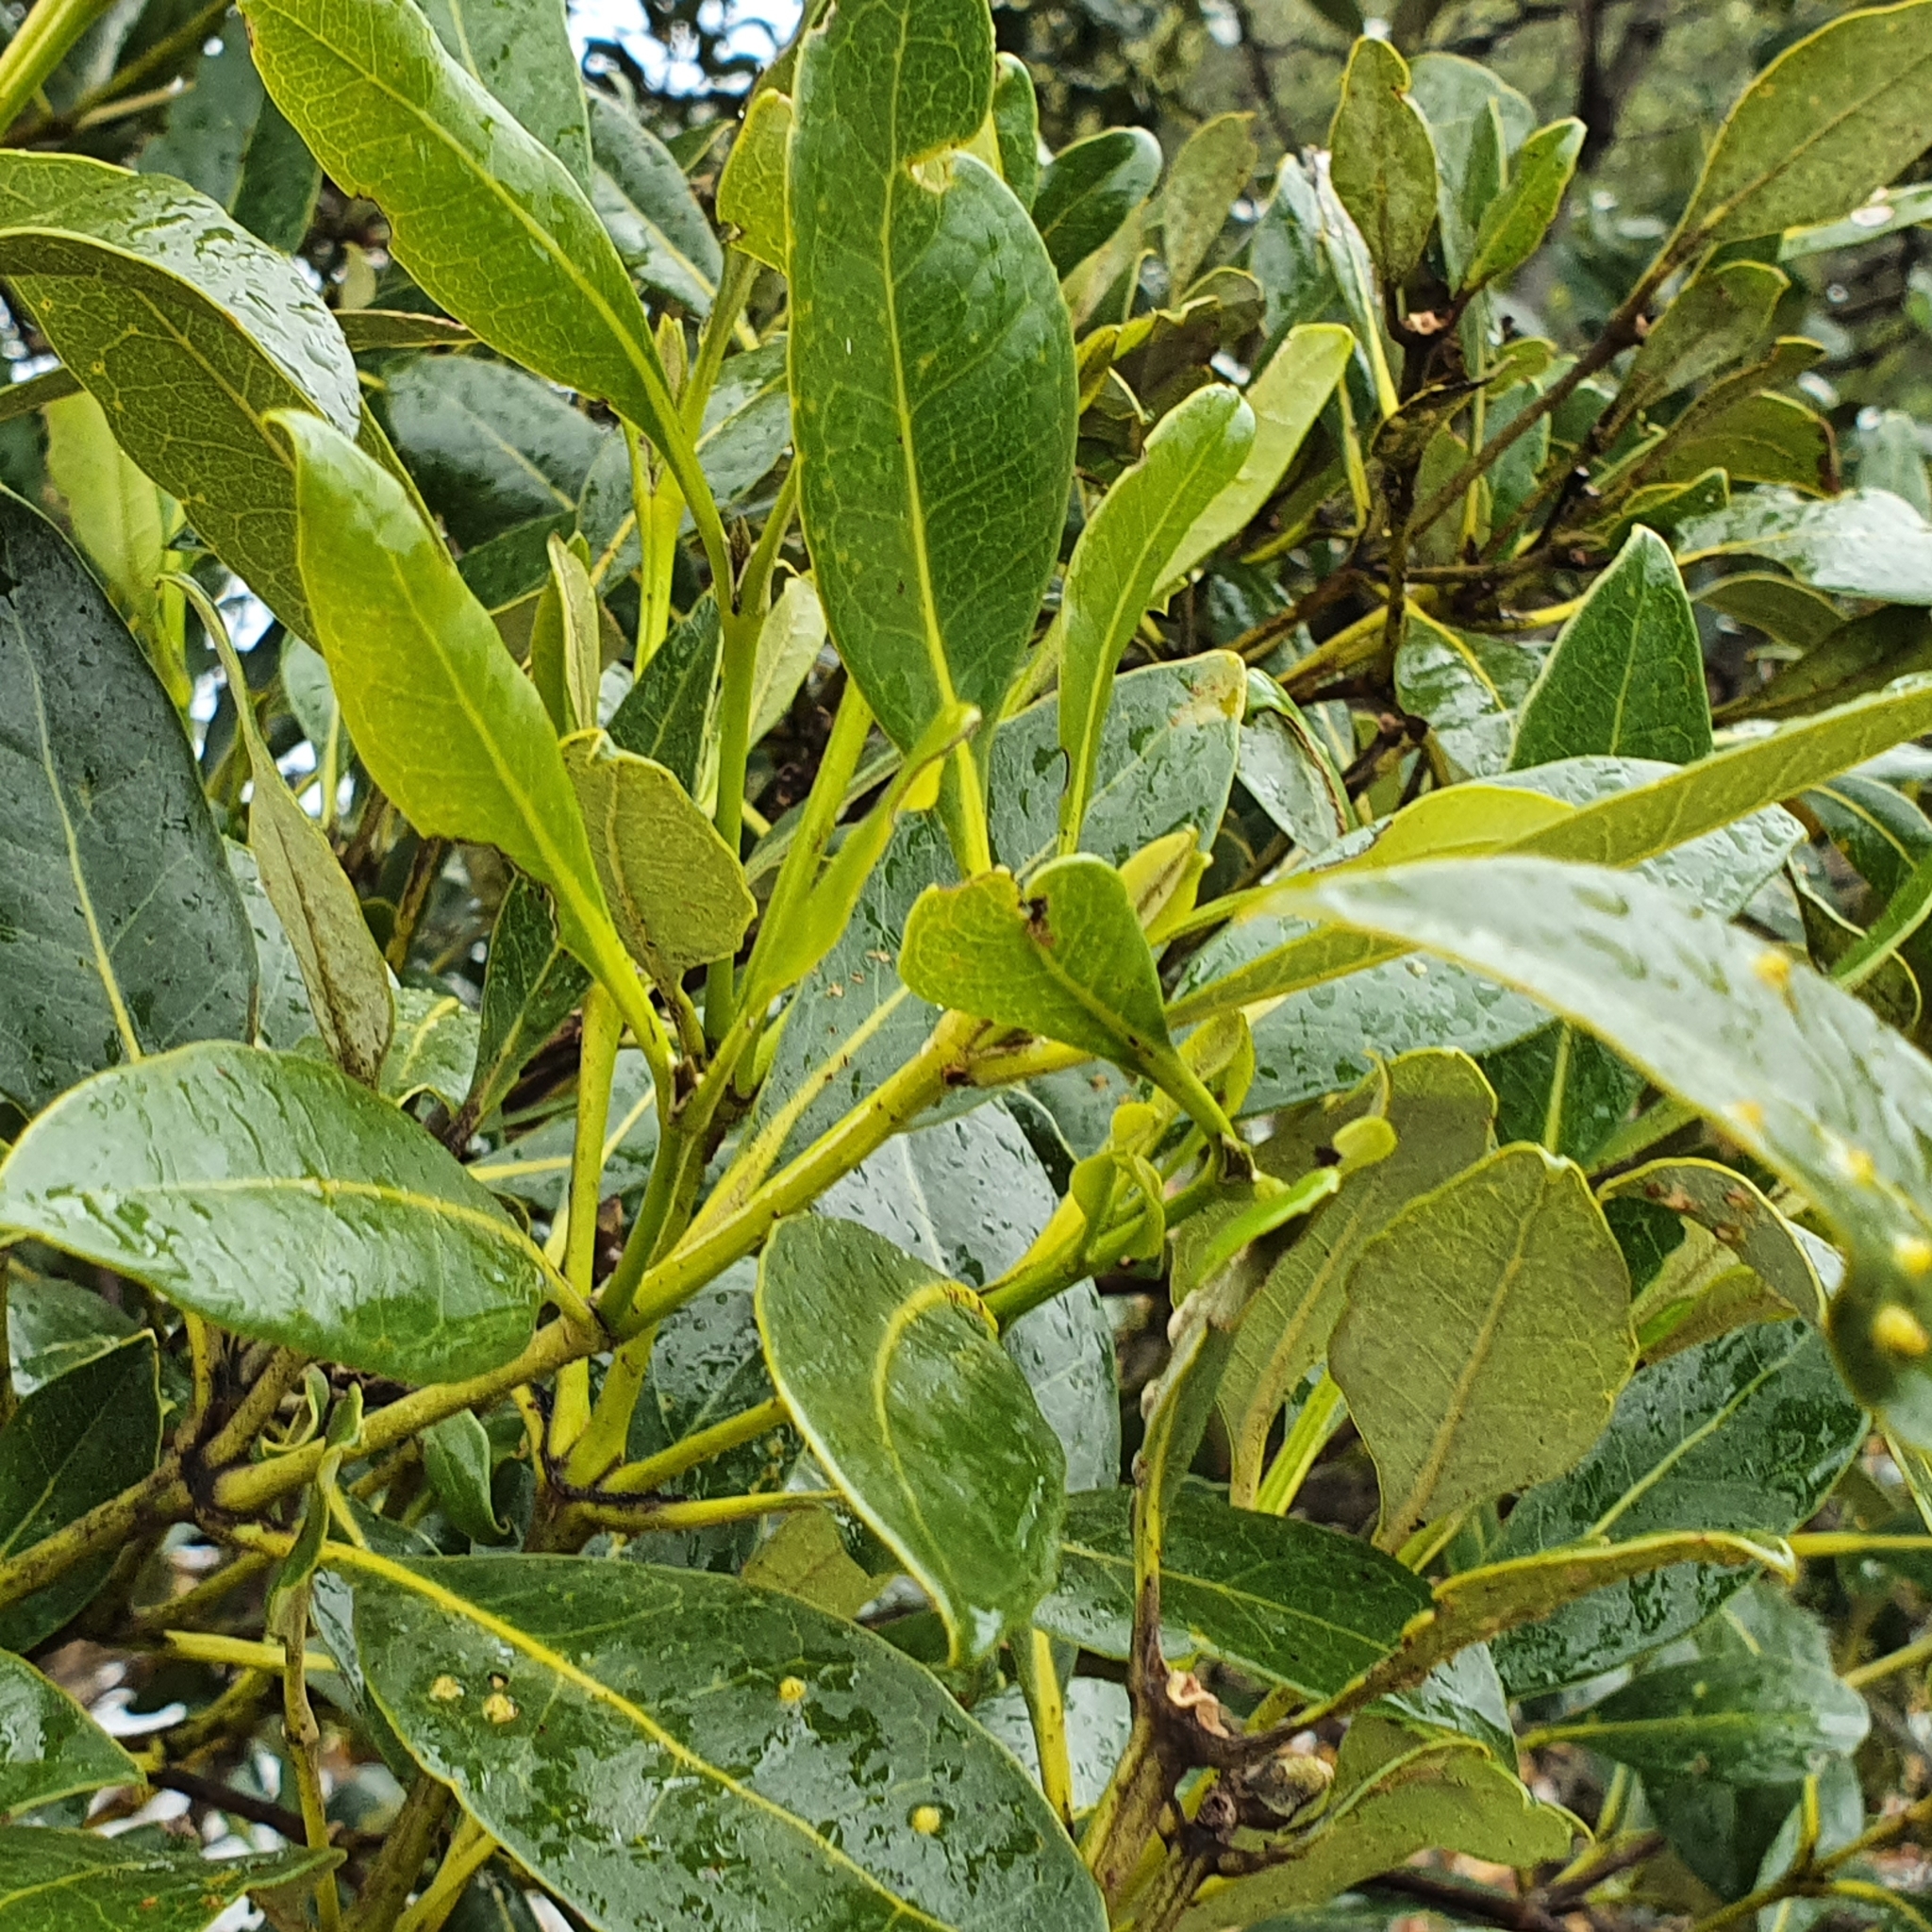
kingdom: Plantae
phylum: Tracheophyta
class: Magnoliopsida
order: Lamiales
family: Acanthaceae
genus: Avicennia
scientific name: Avicennia marina
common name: Gray mangrove
